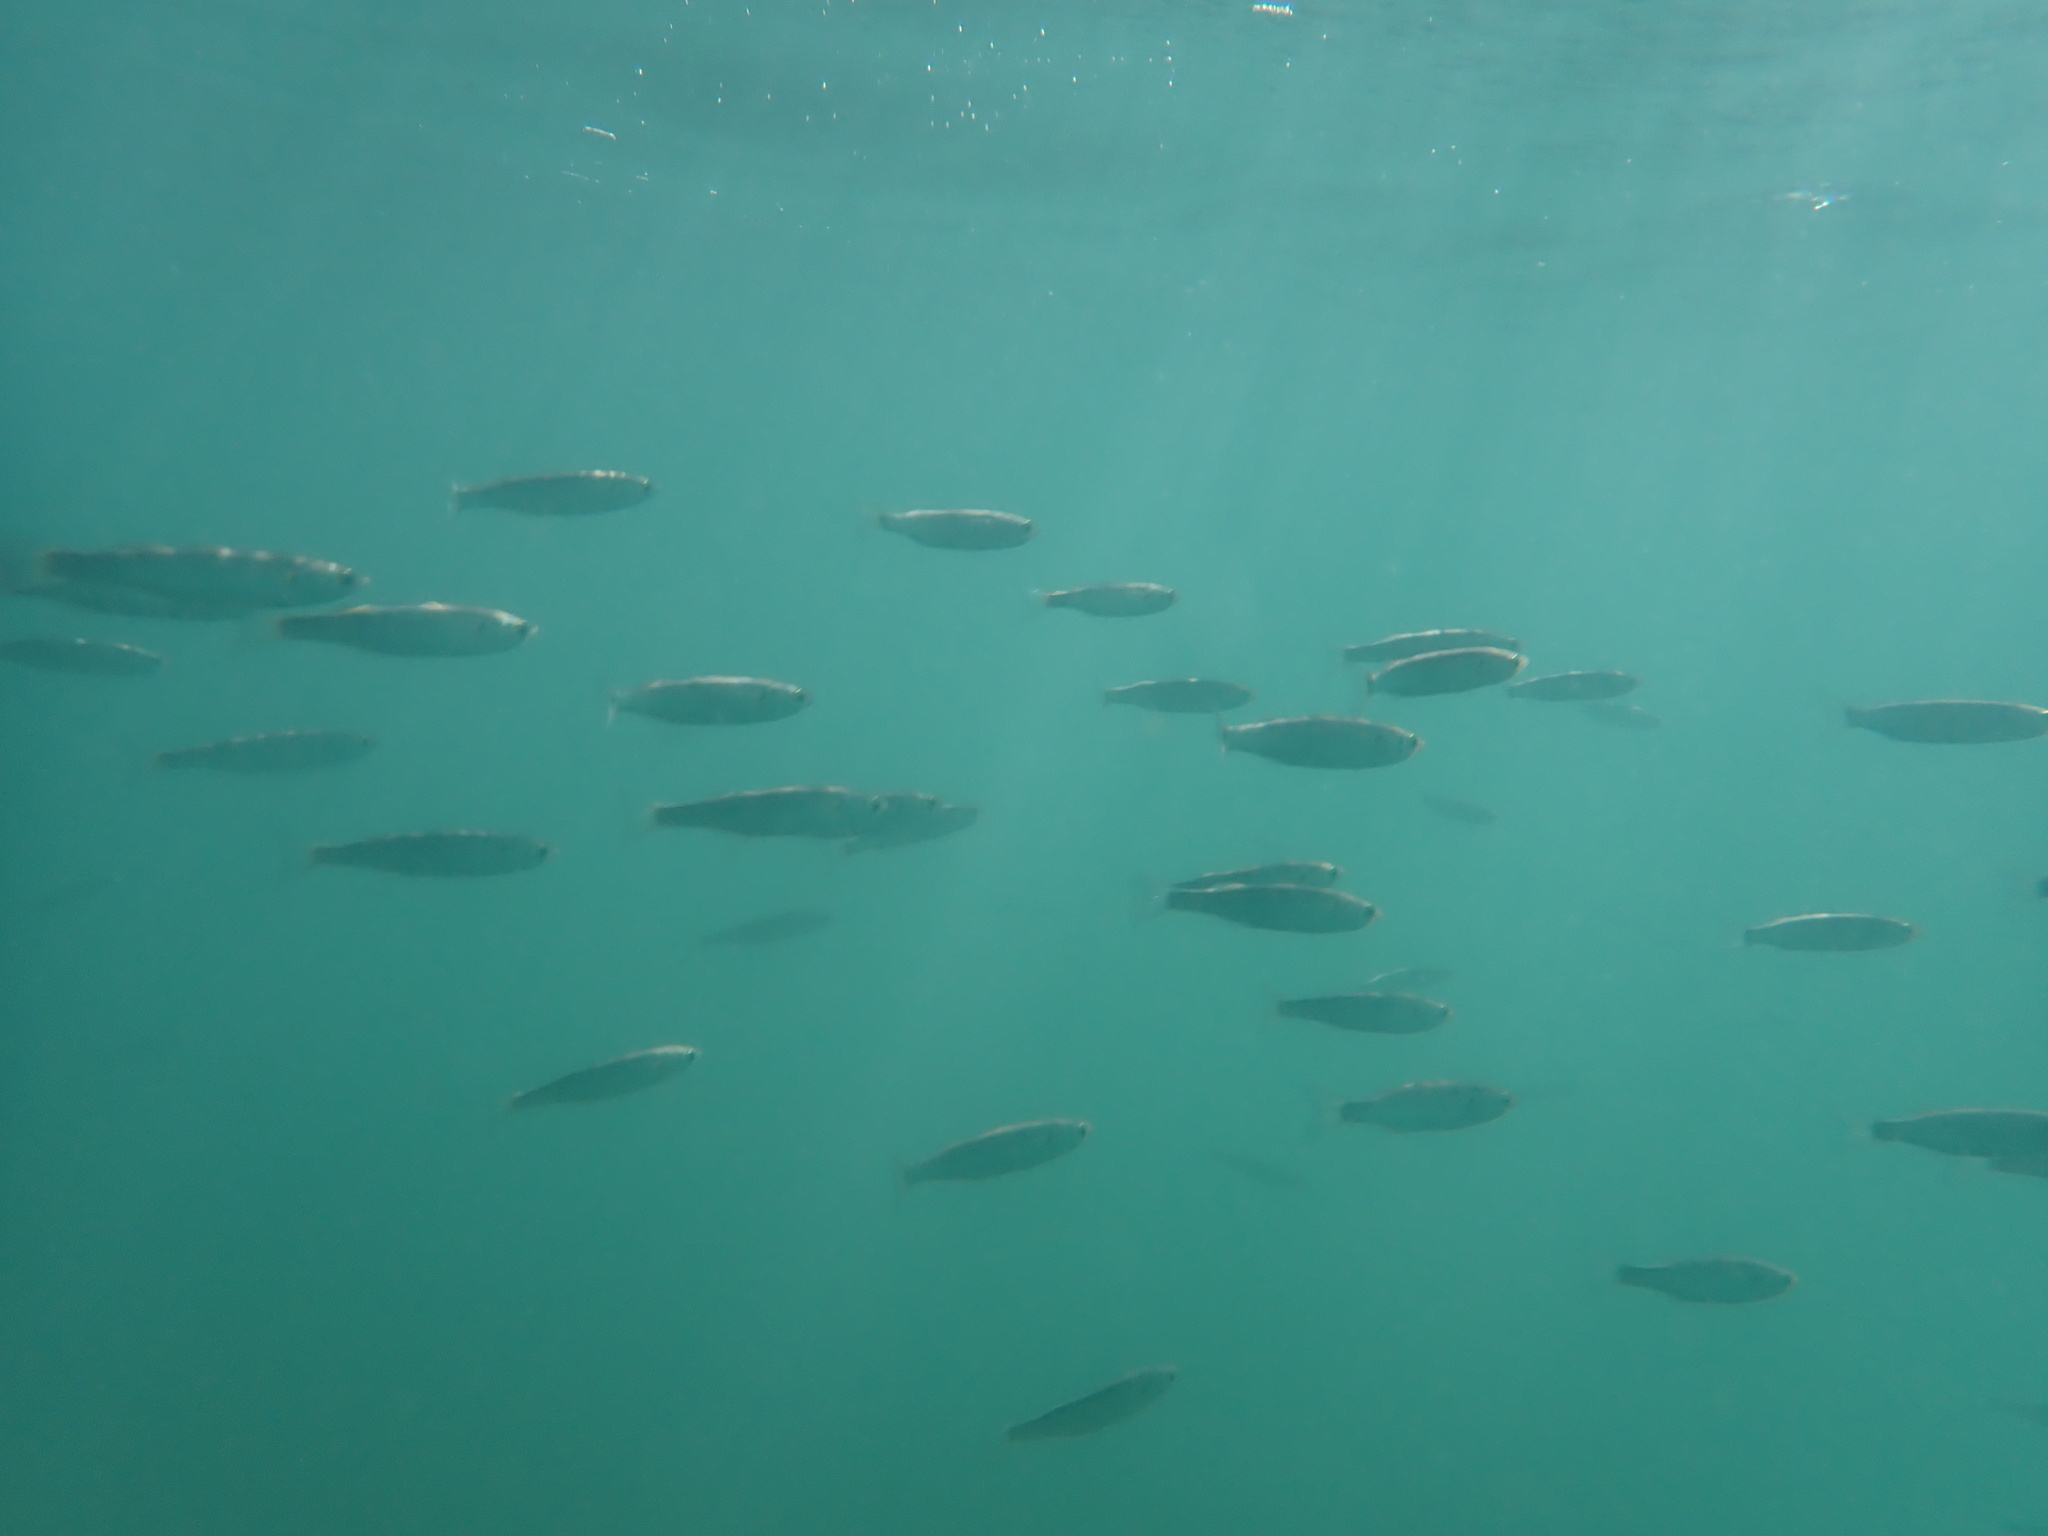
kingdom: Animalia
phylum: Chordata
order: Mugiliformes
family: Mugilidae
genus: Aldrichetta
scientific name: Aldrichetta forsteri
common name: Yellow-eye mullet
